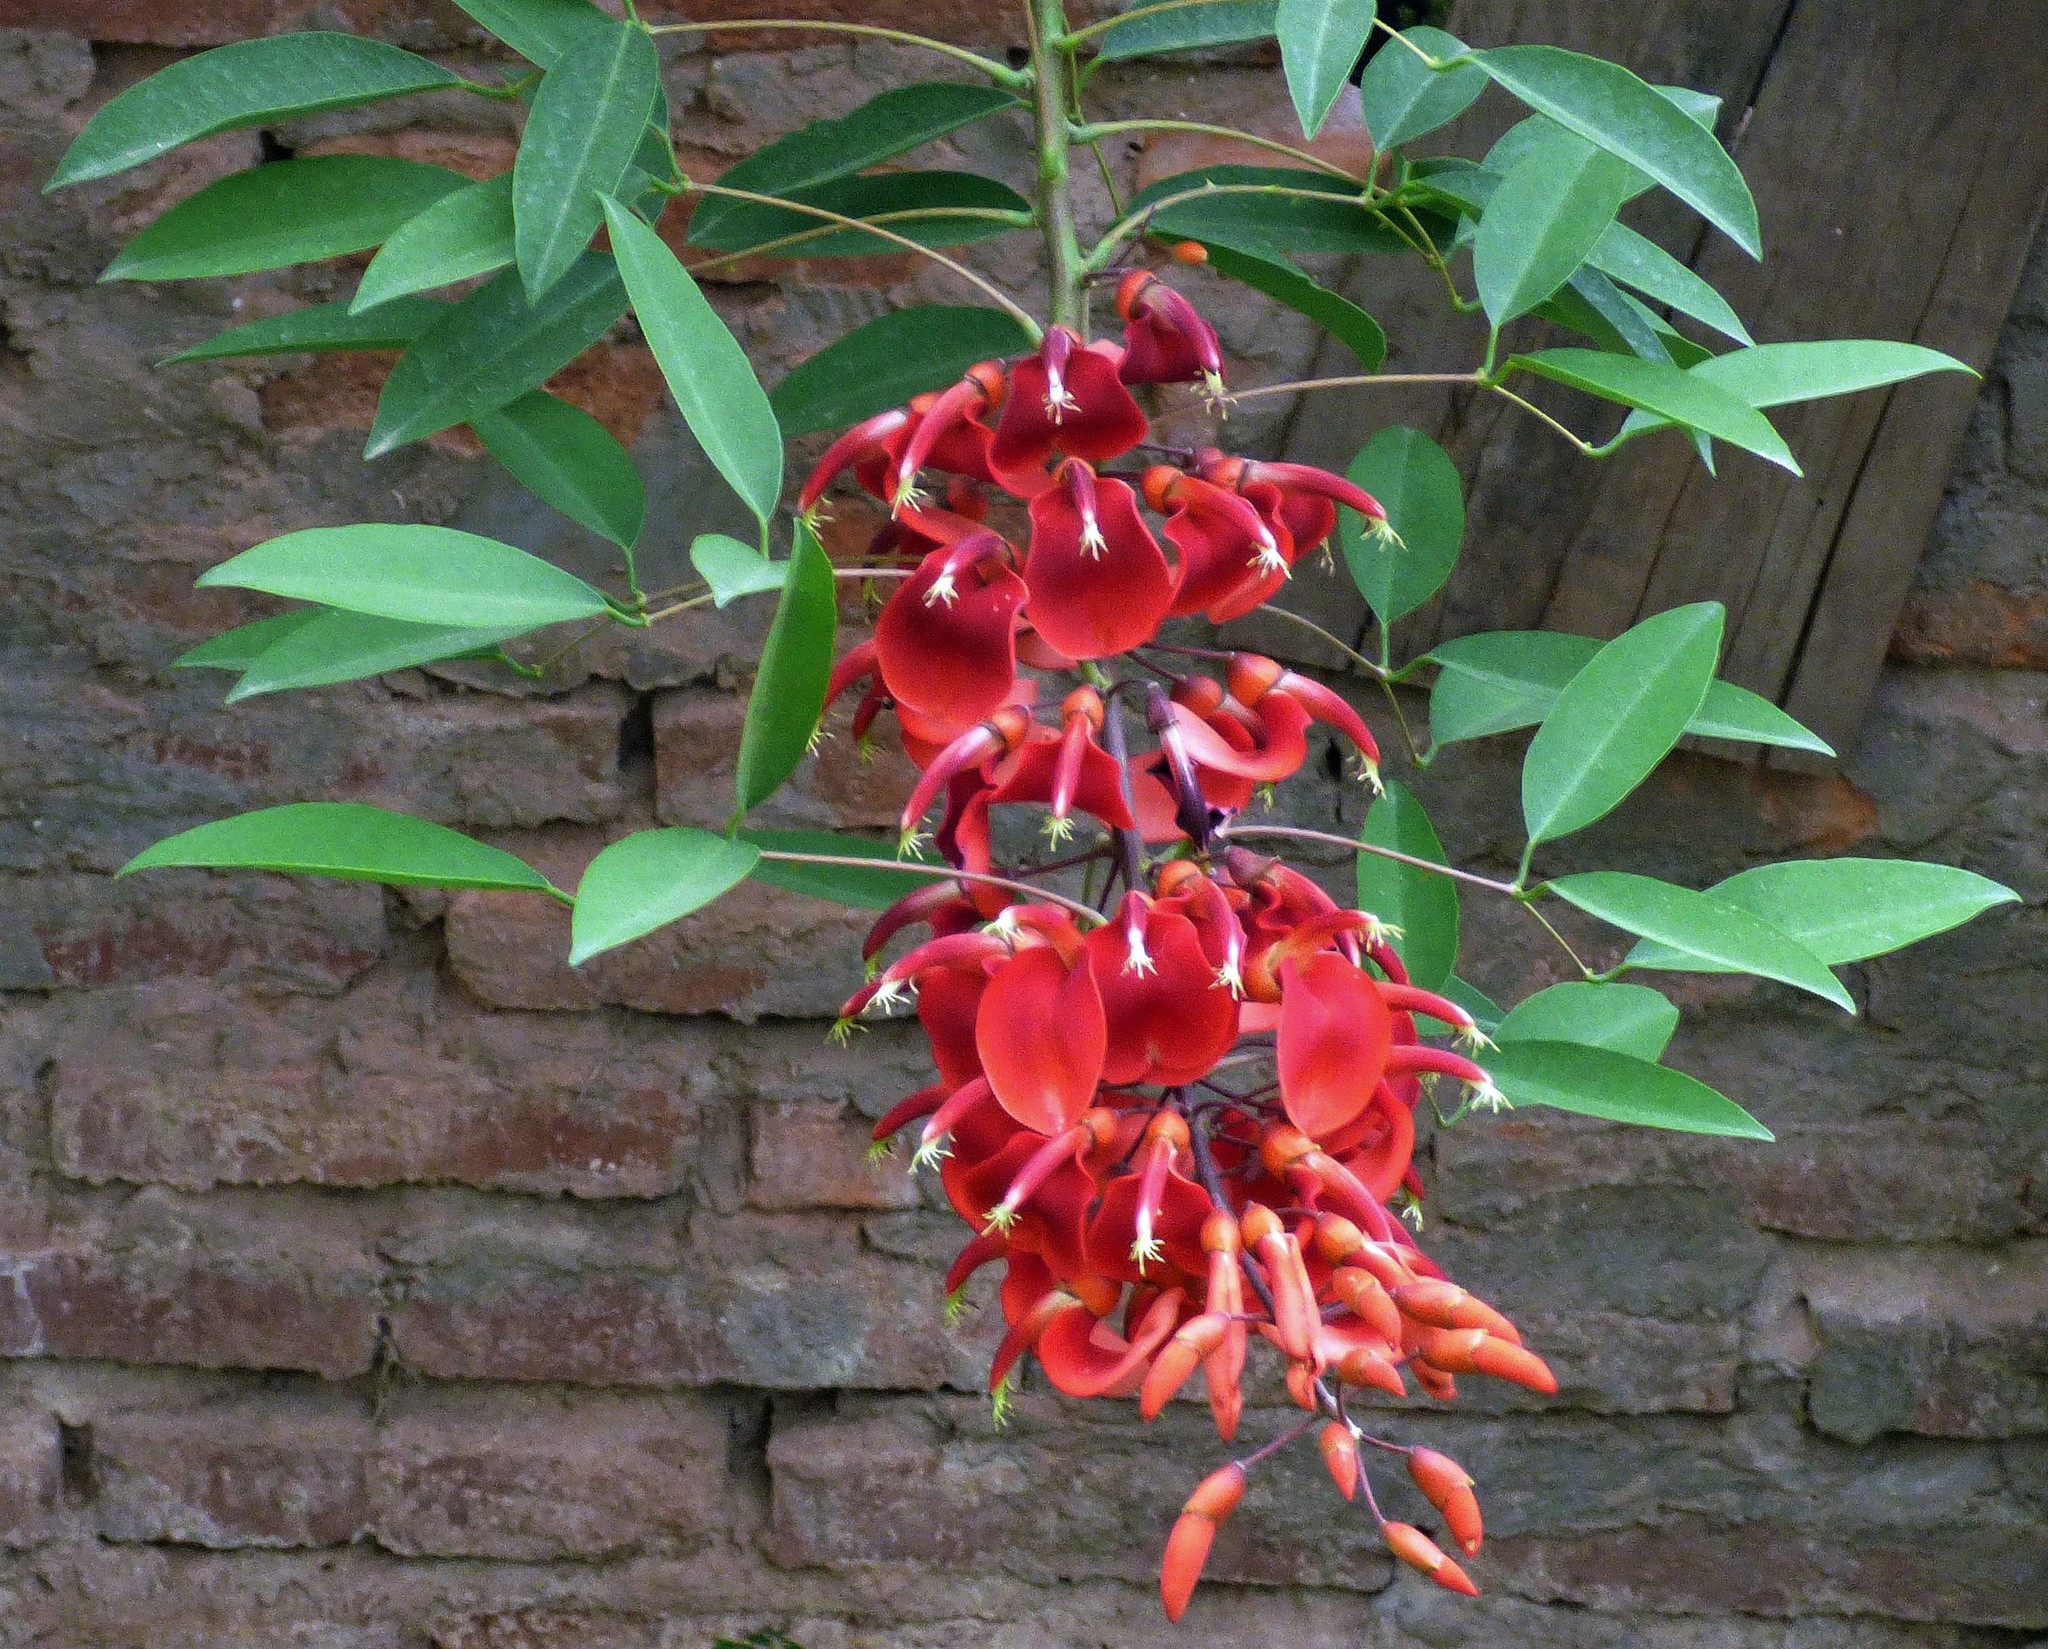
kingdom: Plantae
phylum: Tracheophyta
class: Magnoliopsida
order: Fabales
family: Fabaceae
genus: Erythrina
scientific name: Erythrina crista-galli
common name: Cockspur coral tree
